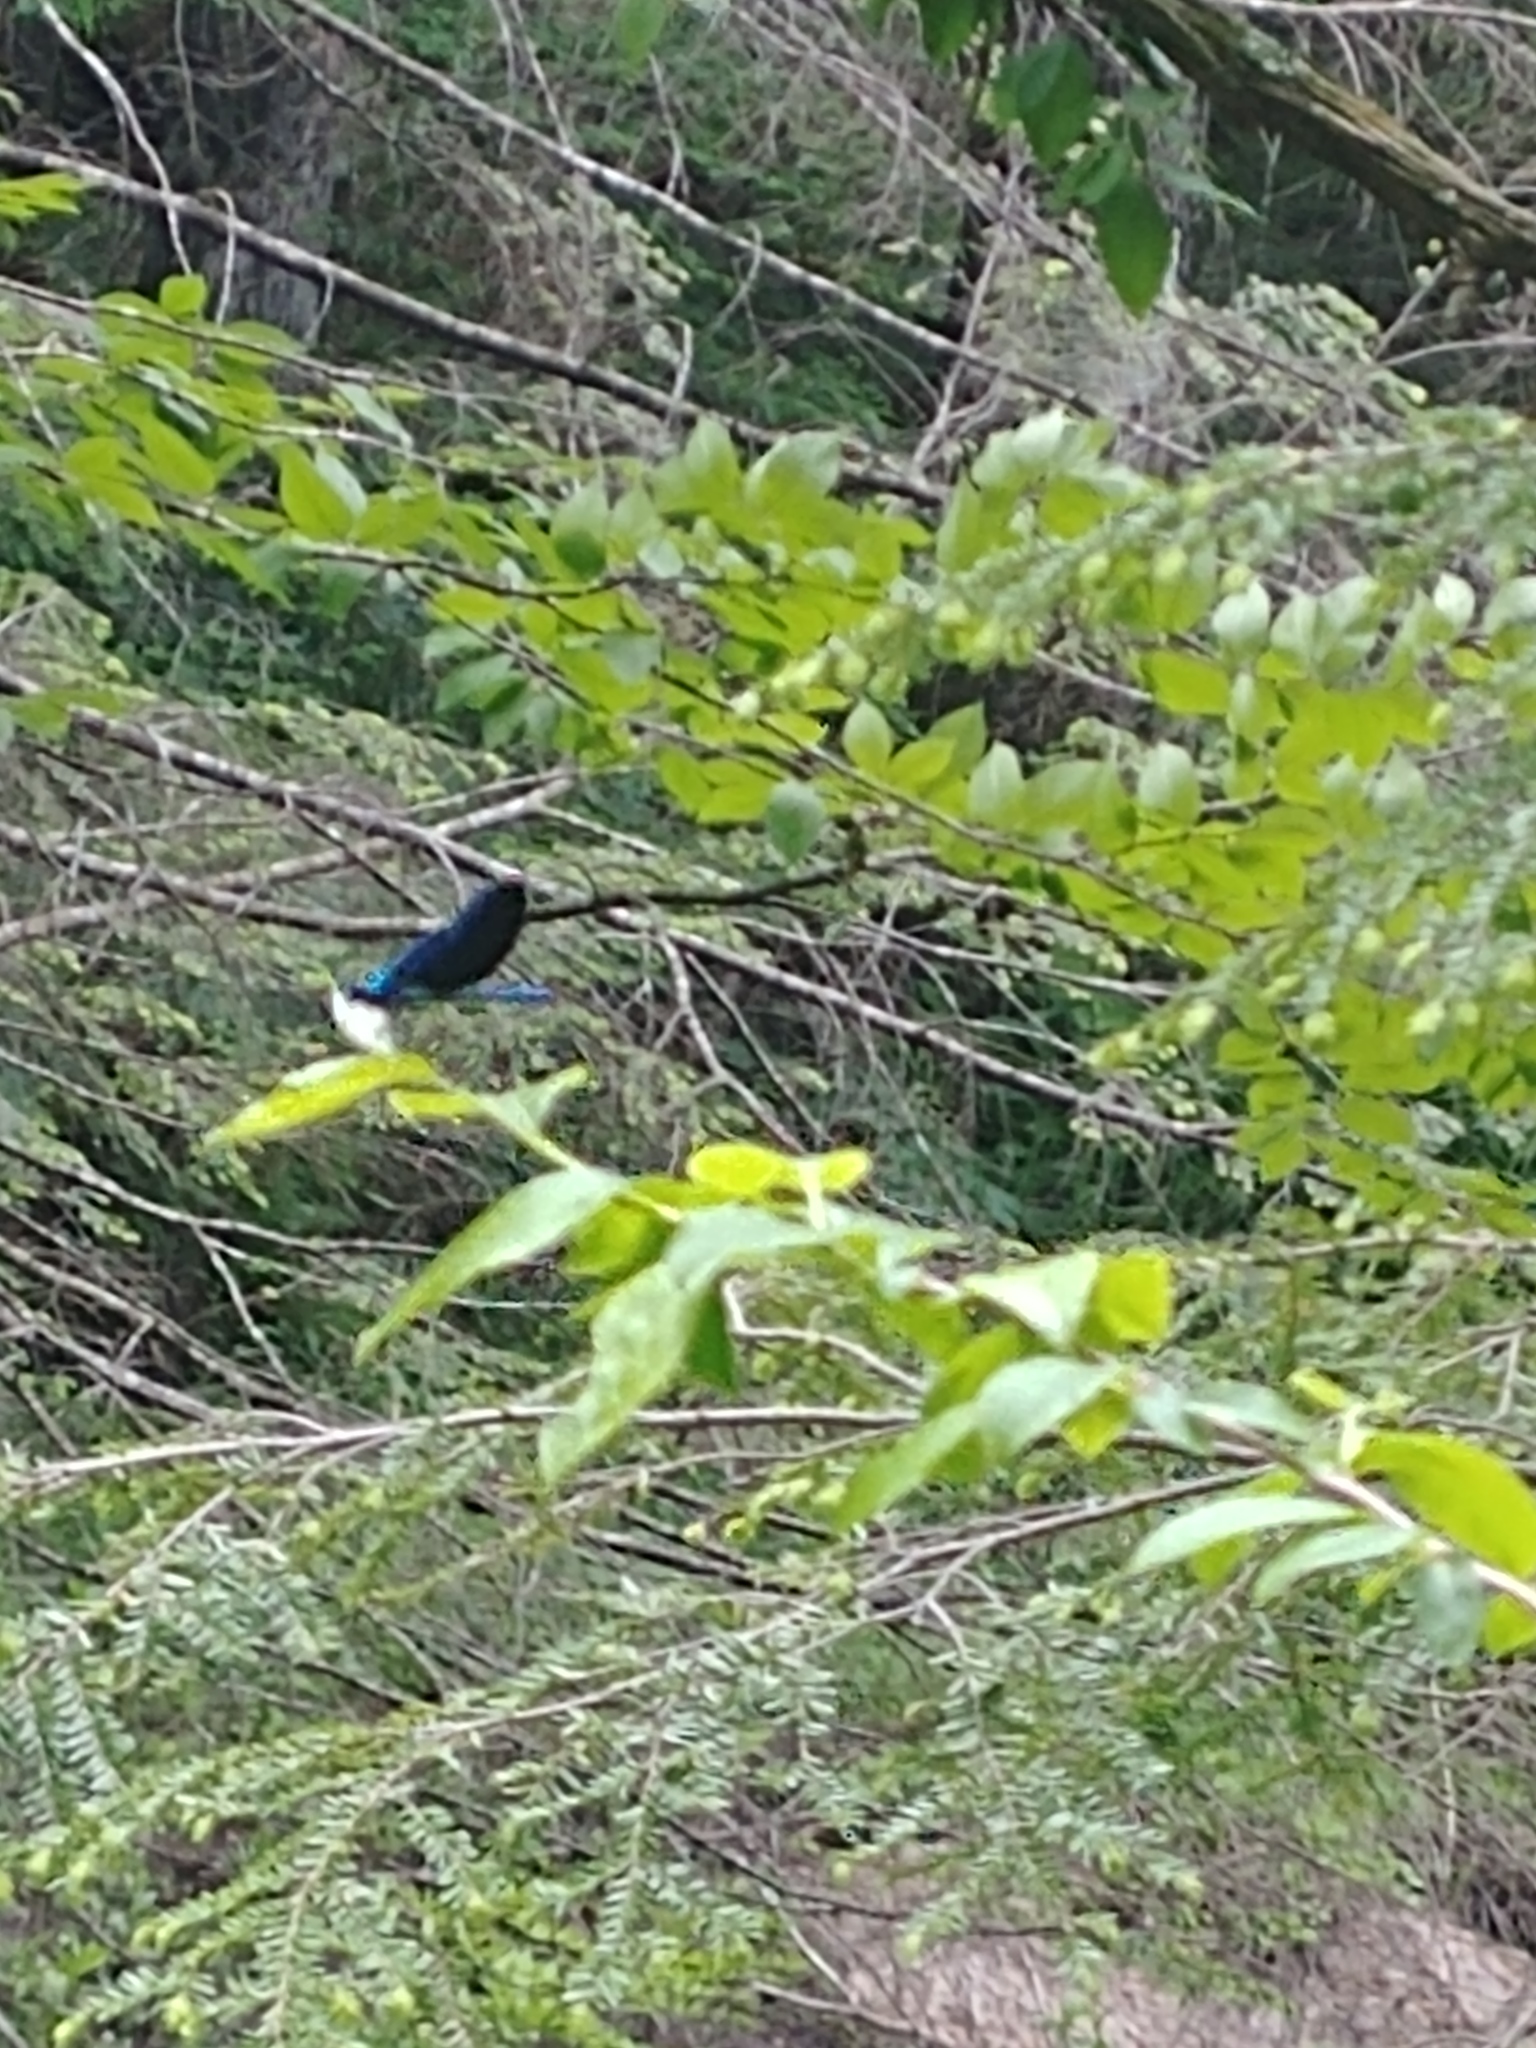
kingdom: Animalia
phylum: Arthropoda
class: Insecta
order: Odonata
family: Calopterygidae
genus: Calopteryx
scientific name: Calopteryx maculata
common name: Ebony jewelwing
